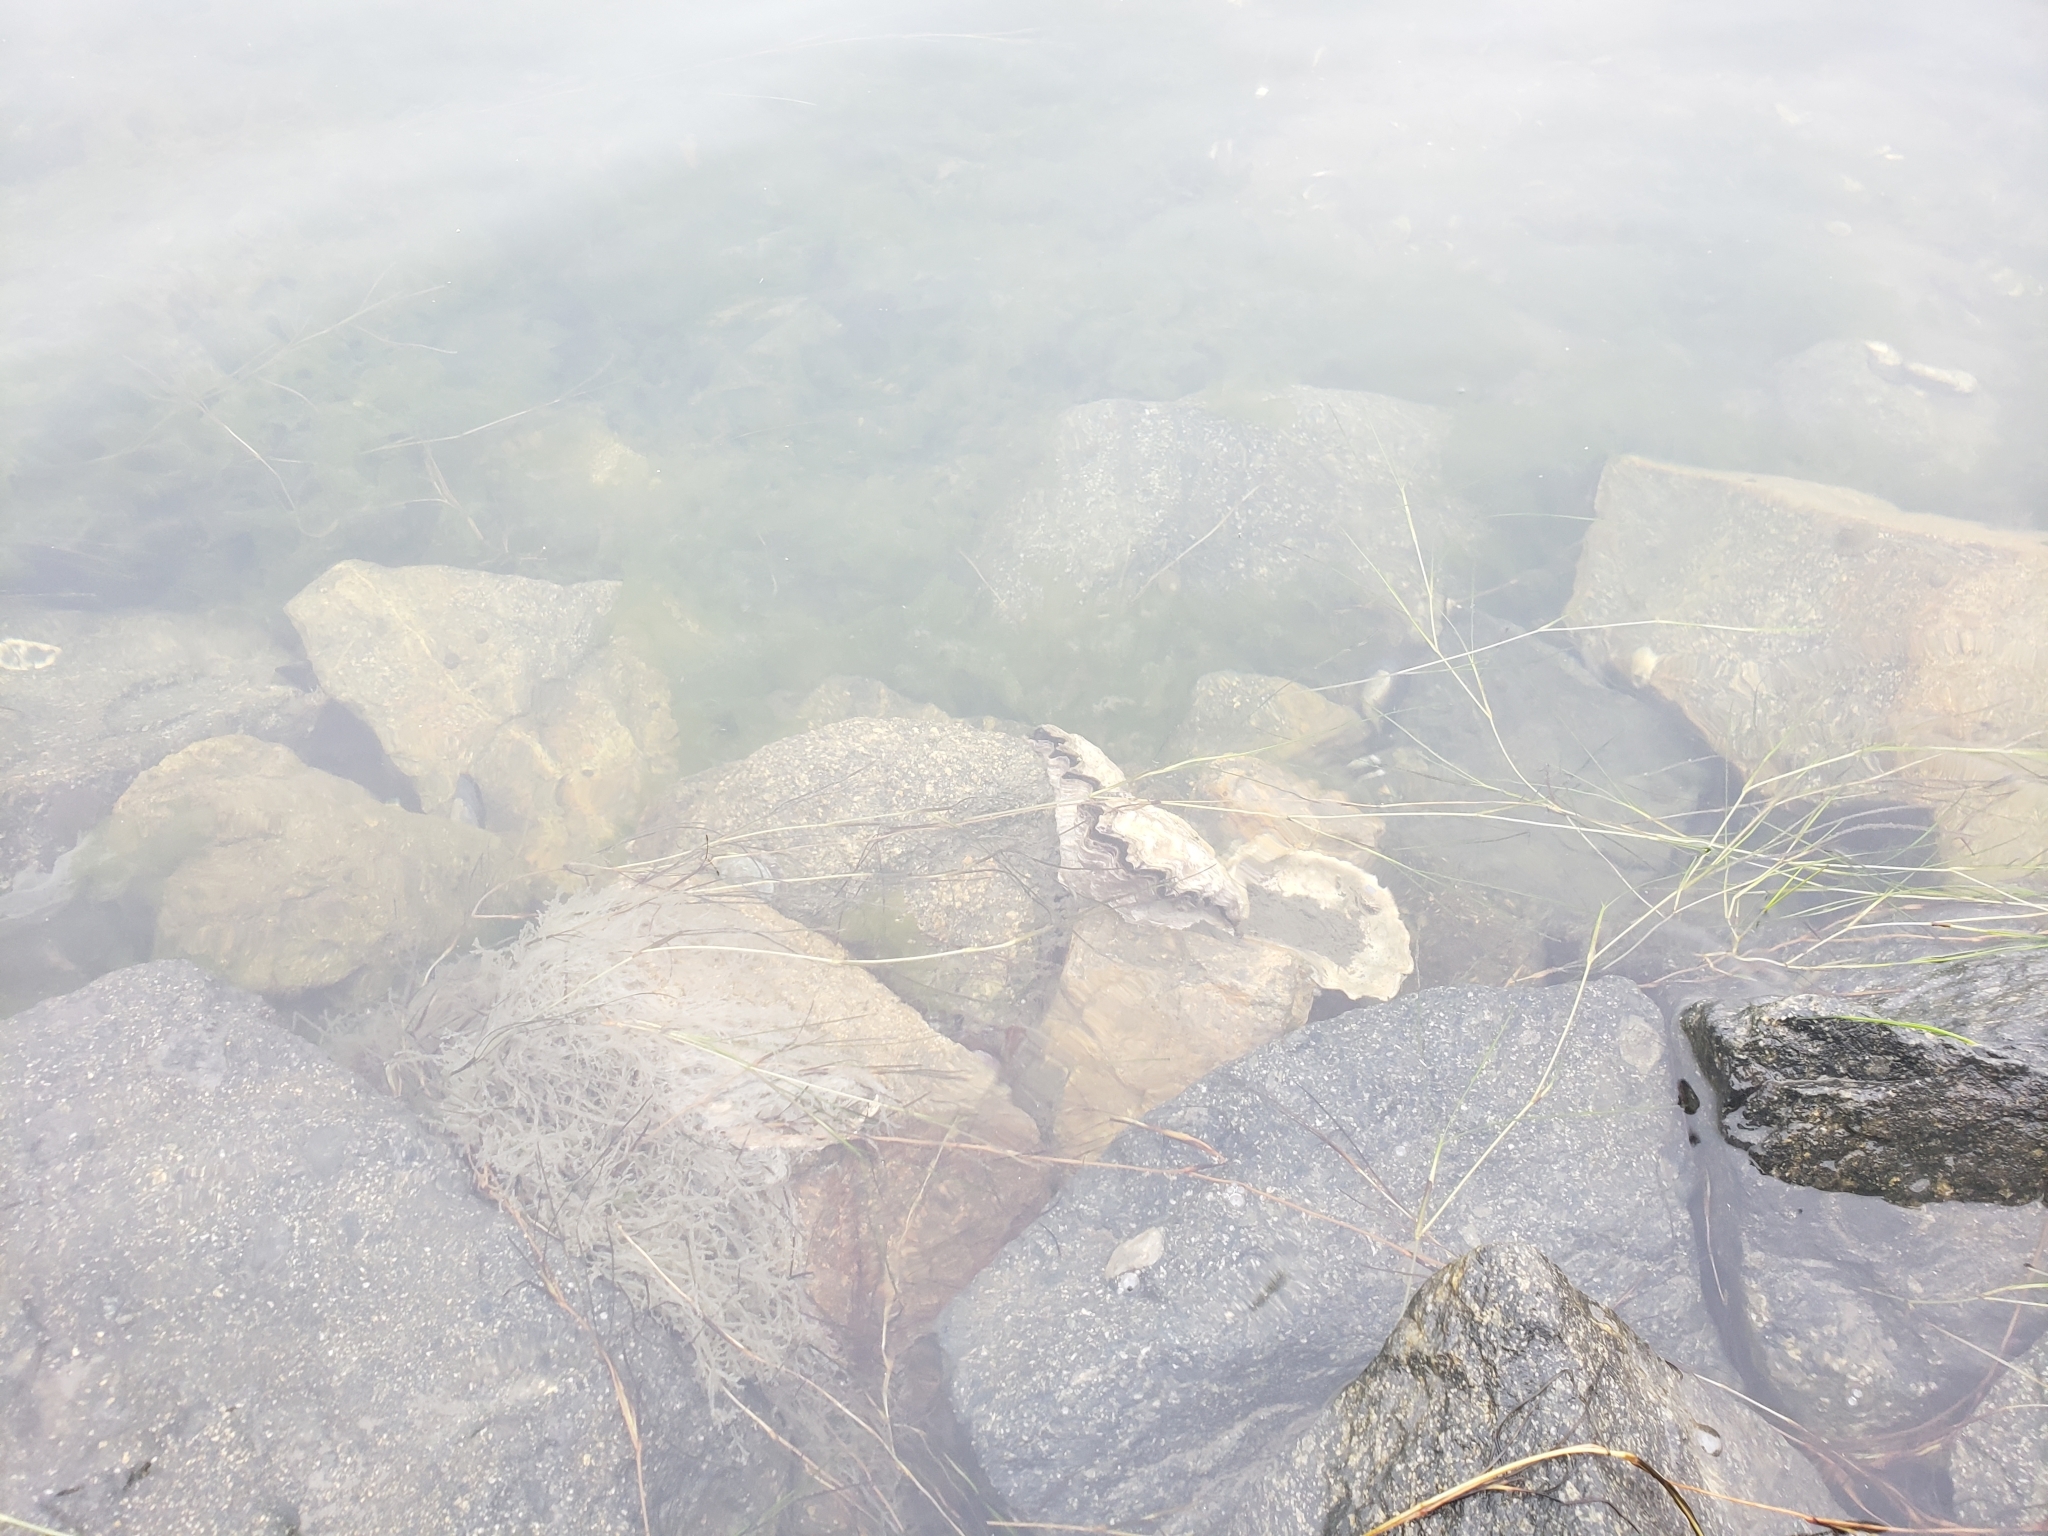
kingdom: Animalia
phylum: Mollusca
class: Bivalvia
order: Ostreida
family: Ostreidae
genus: Magallana
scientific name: Magallana gigas
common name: Pacific oyster
